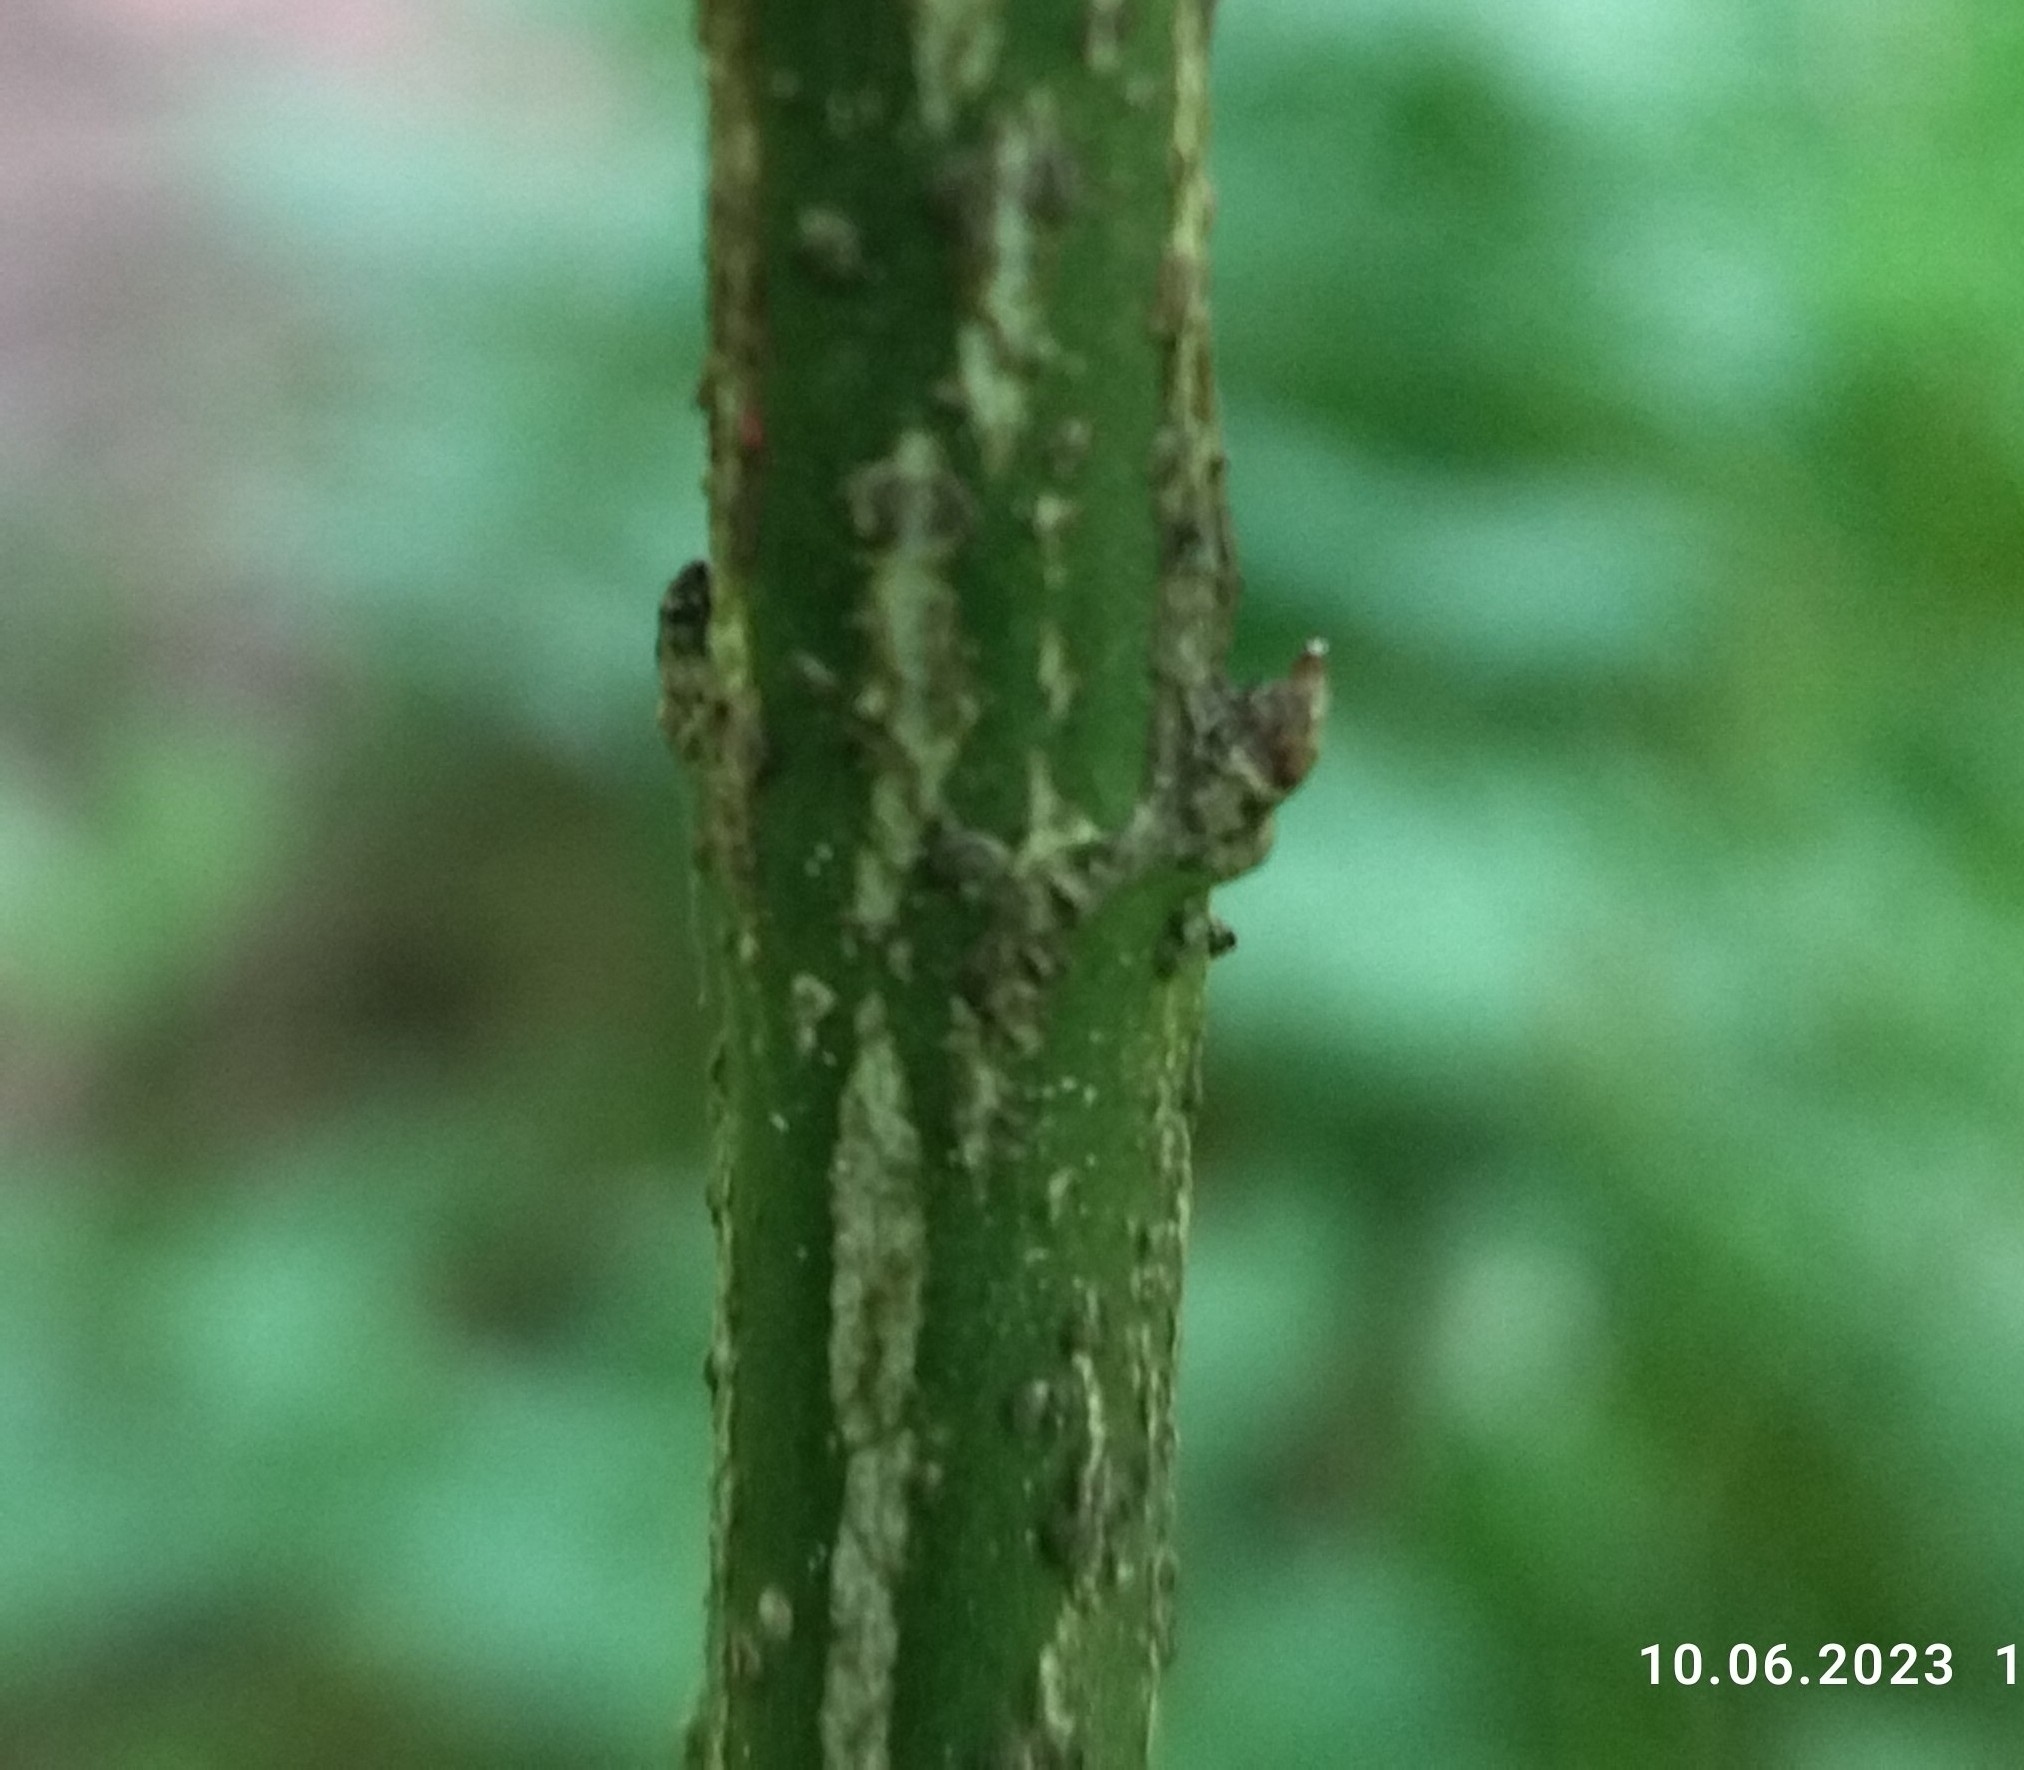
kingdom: Plantae
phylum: Tracheophyta
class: Magnoliopsida
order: Celastrales
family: Celastraceae
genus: Euonymus
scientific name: Euonymus verrucosus
